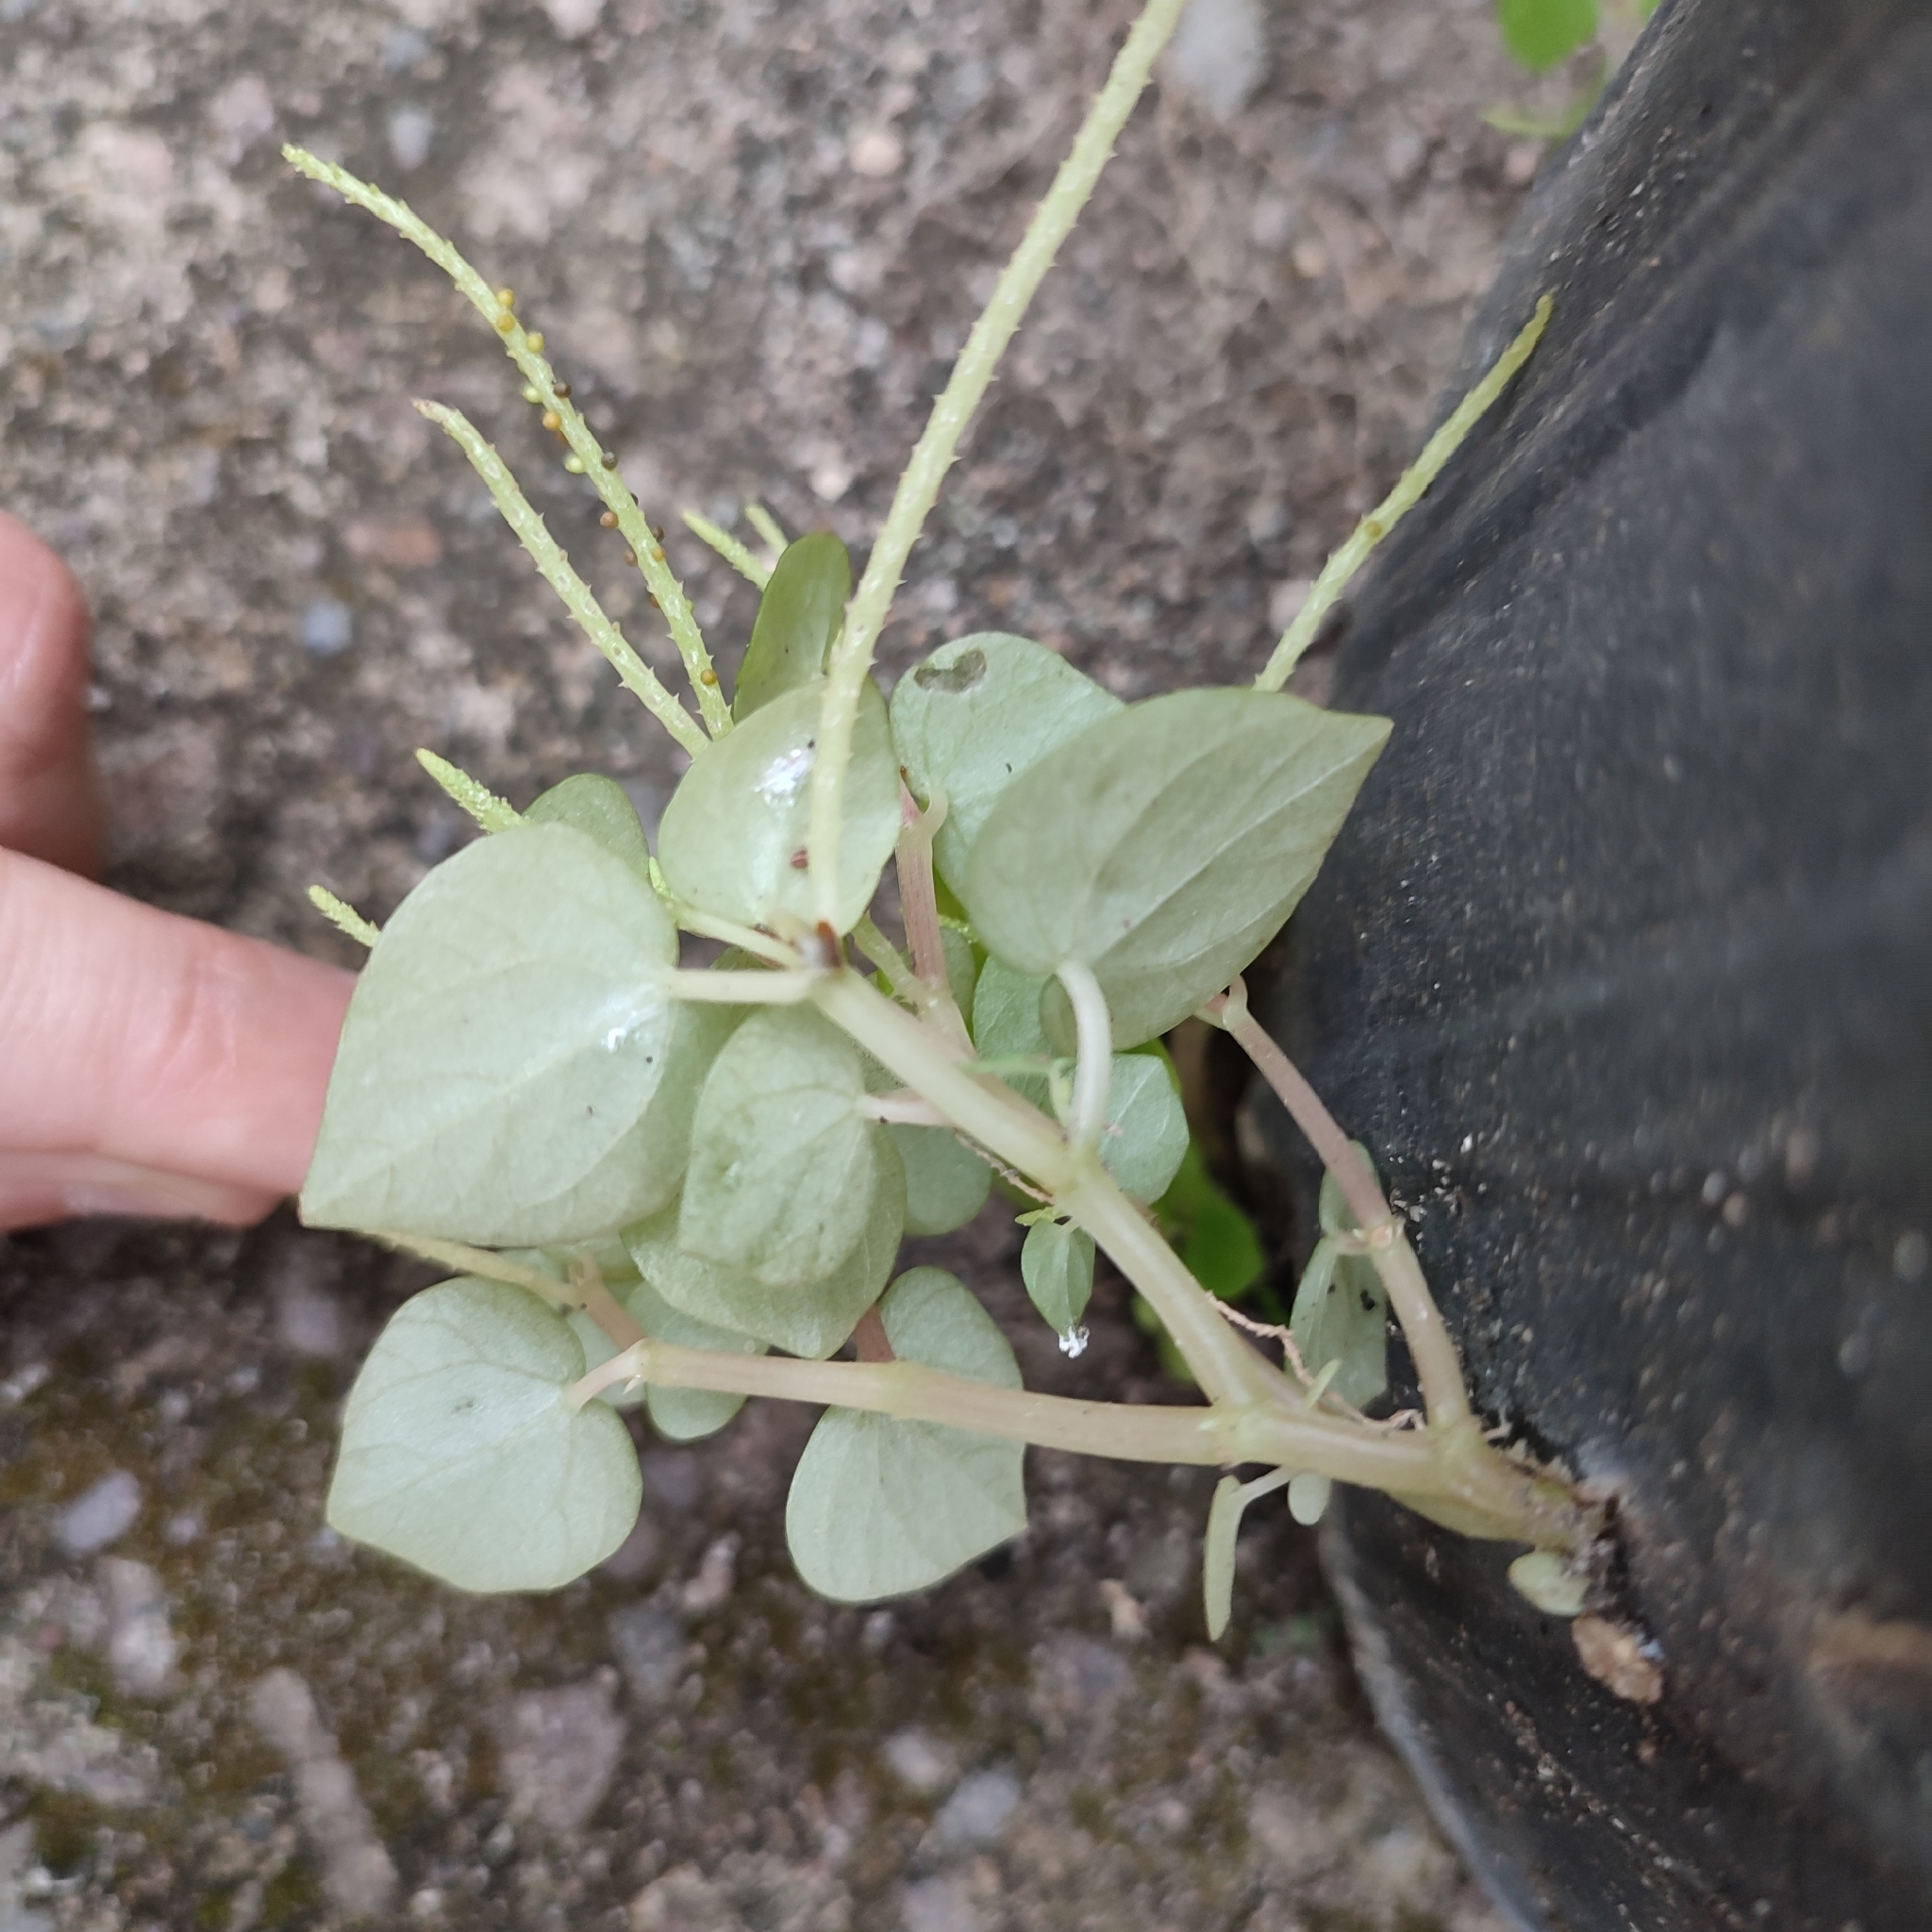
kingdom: Plantae
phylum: Tracheophyta
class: Magnoliopsida
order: Piperales
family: Piperaceae
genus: Peperomia
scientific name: Peperomia pellucida
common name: Man to man
